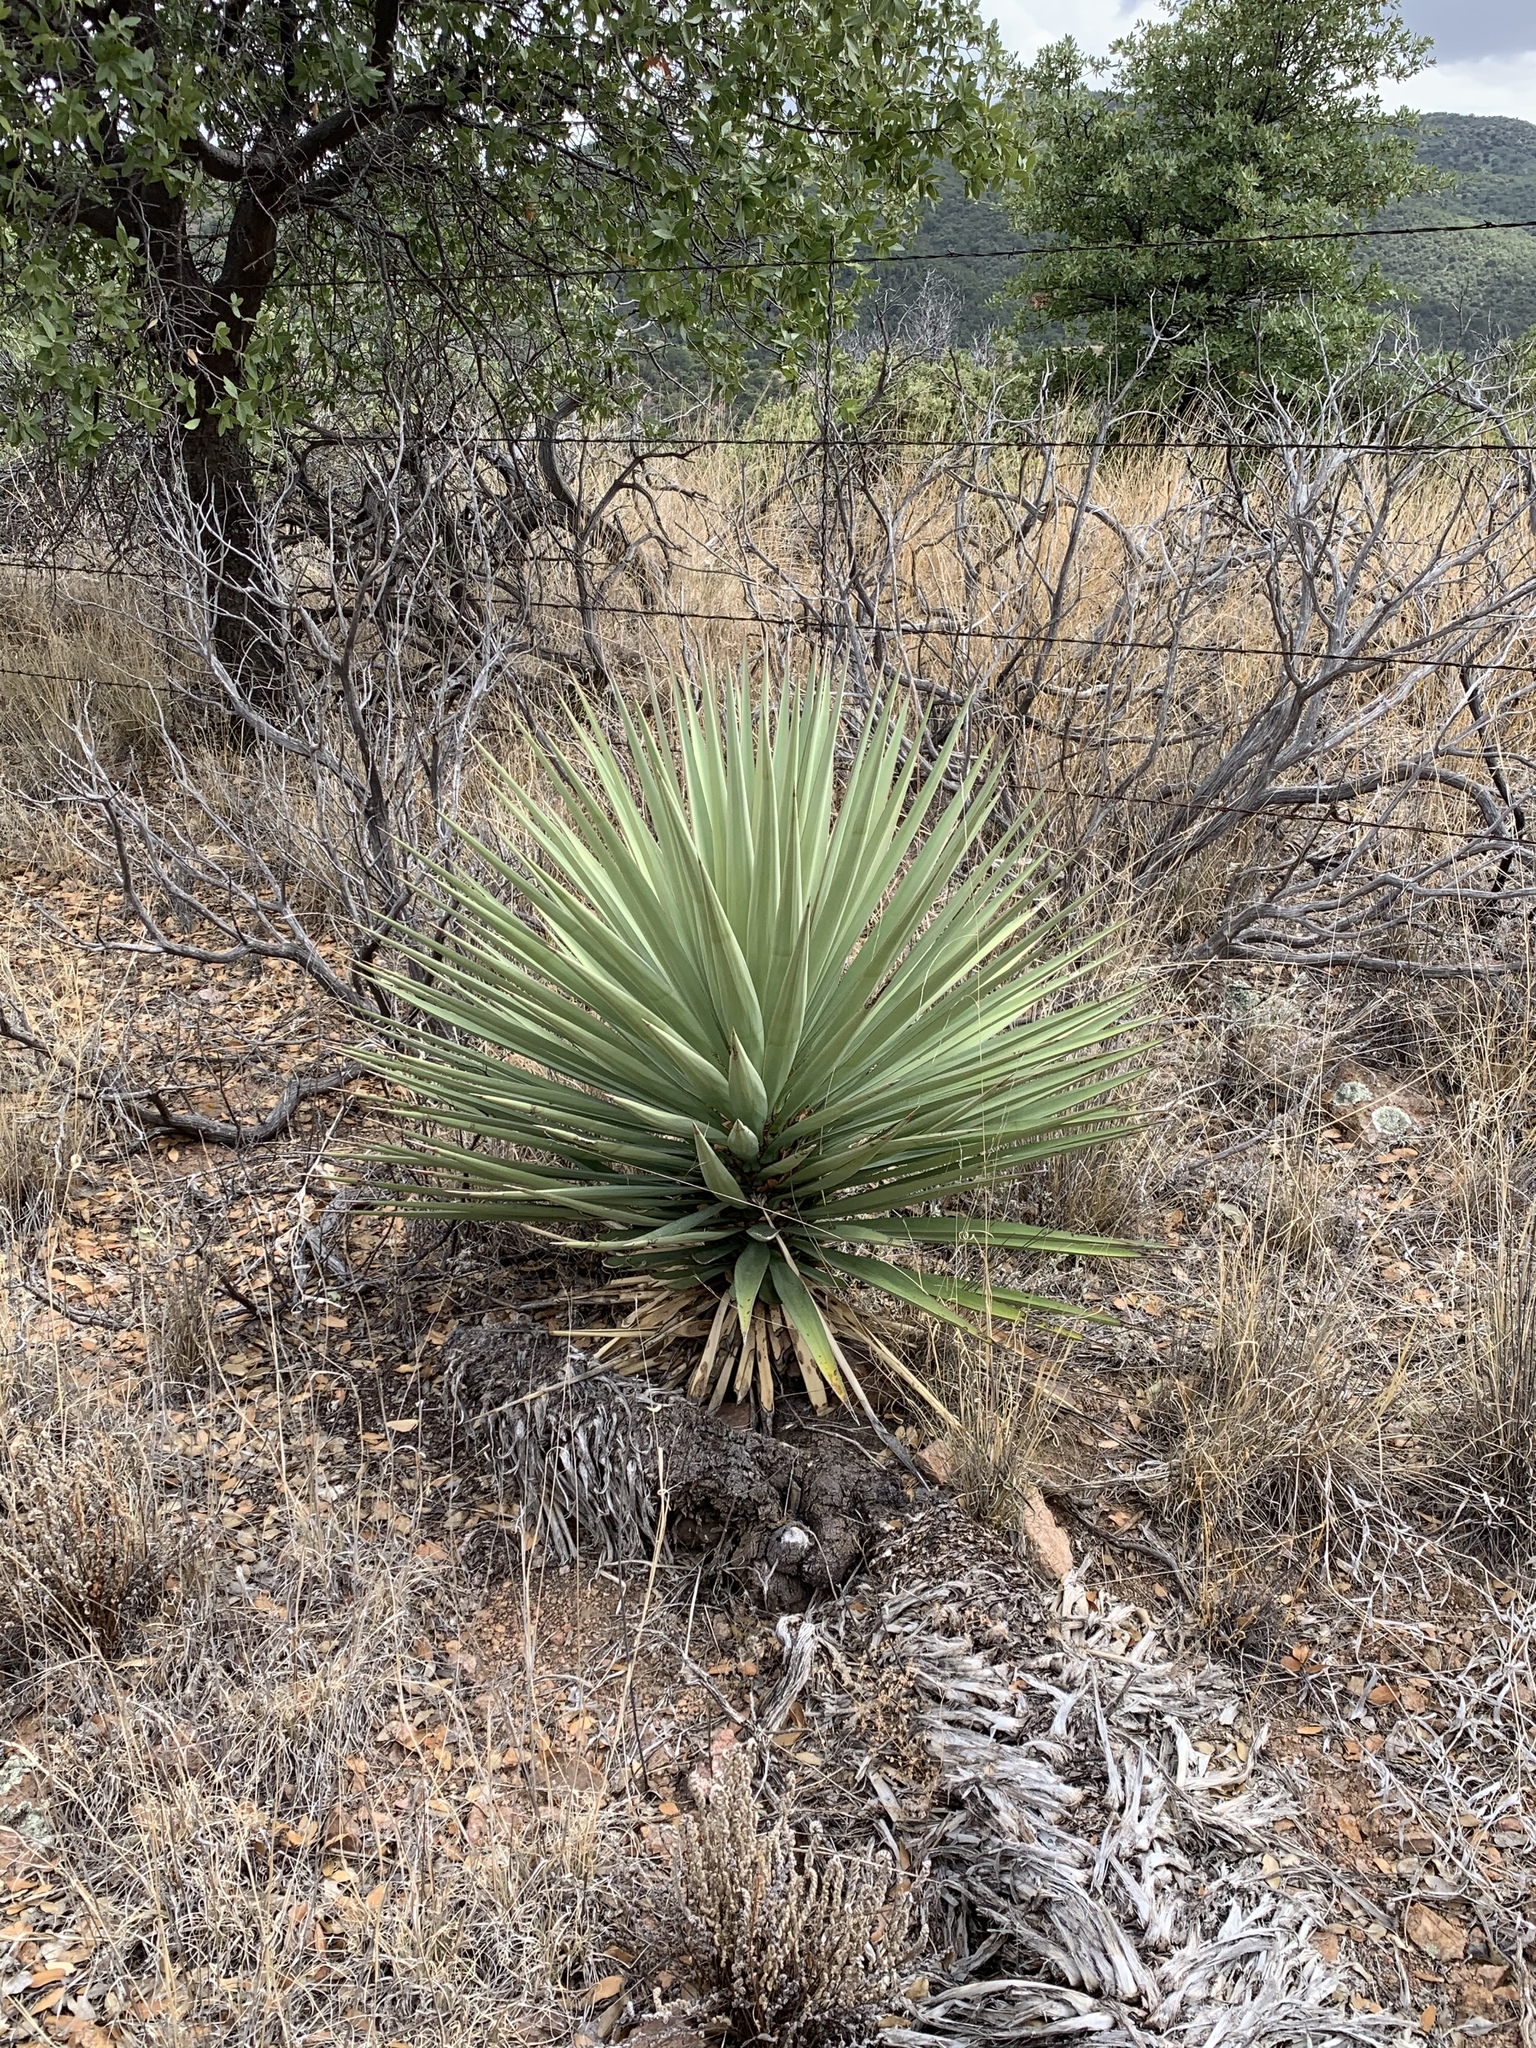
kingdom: Plantae
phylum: Tracheophyta
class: Liliopsida
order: Asparagales
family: Asparagaceae
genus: Yucca
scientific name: Yucca madrensis
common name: Hoary yucca
